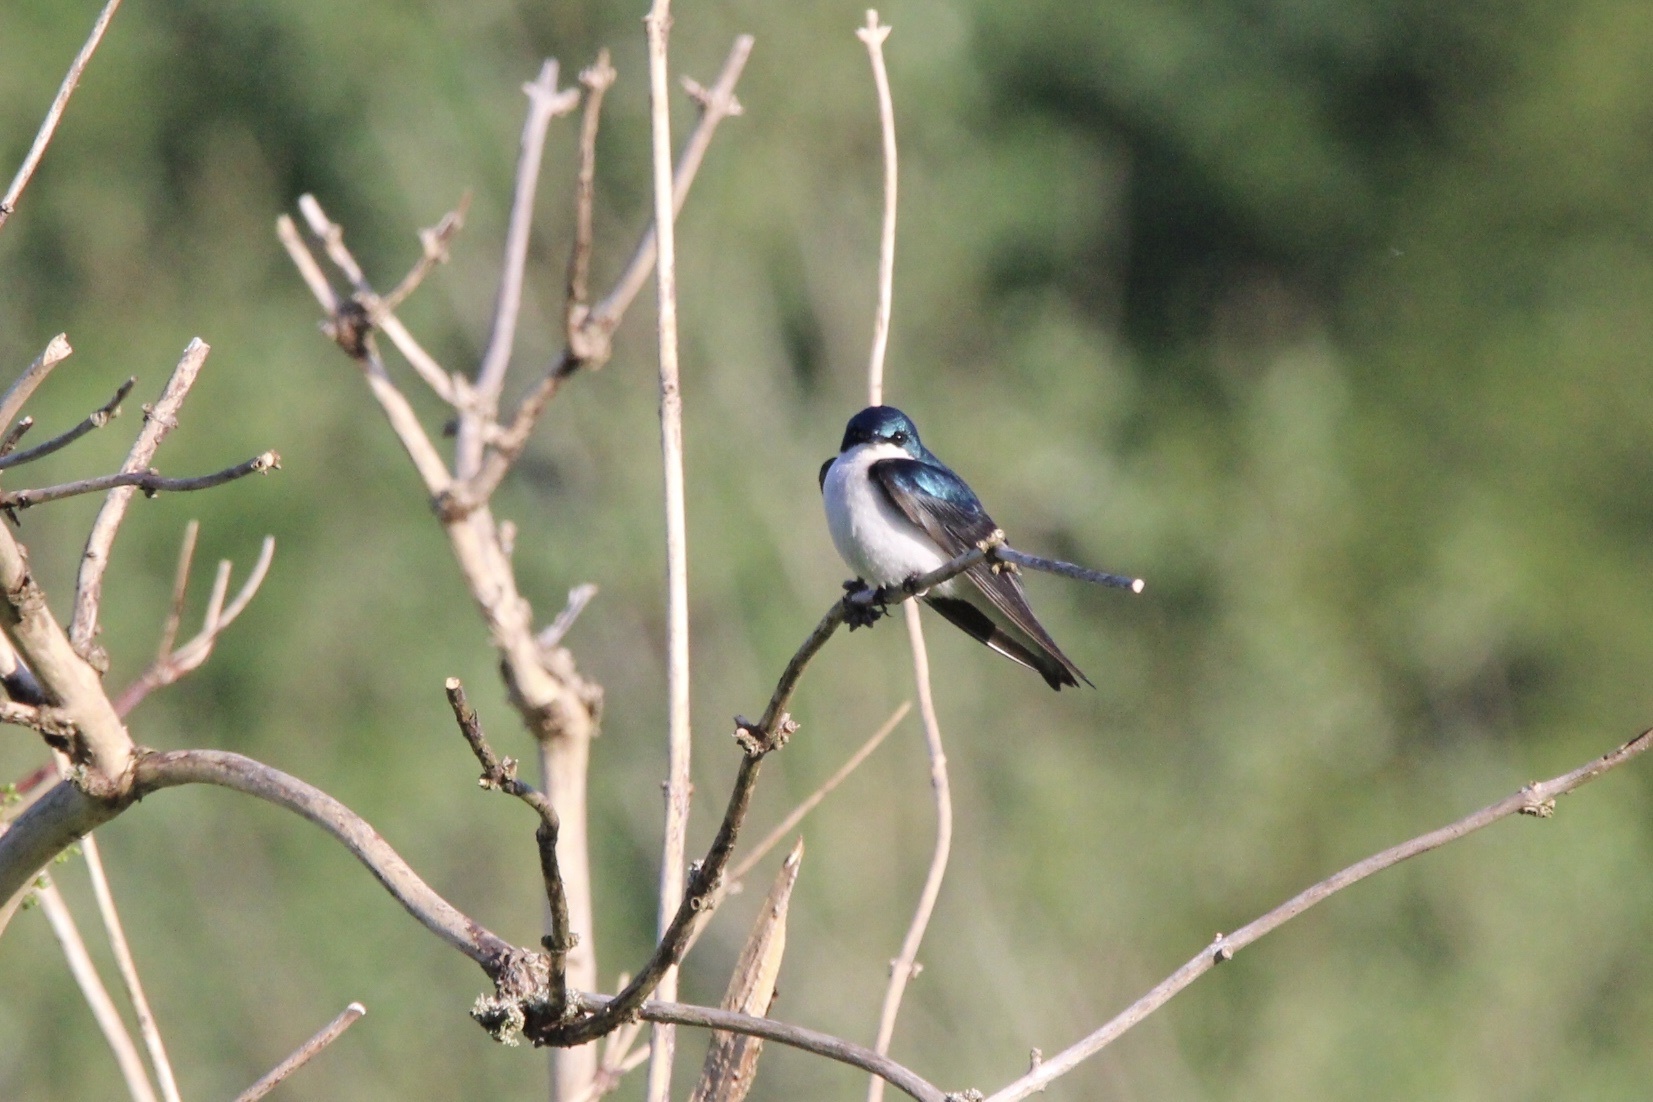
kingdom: Animalia
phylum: Chordata
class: Aves
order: Passeriformes
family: Hirundinidae
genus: Tachycineta
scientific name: Tachycineta bicolor
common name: Tree swallow
